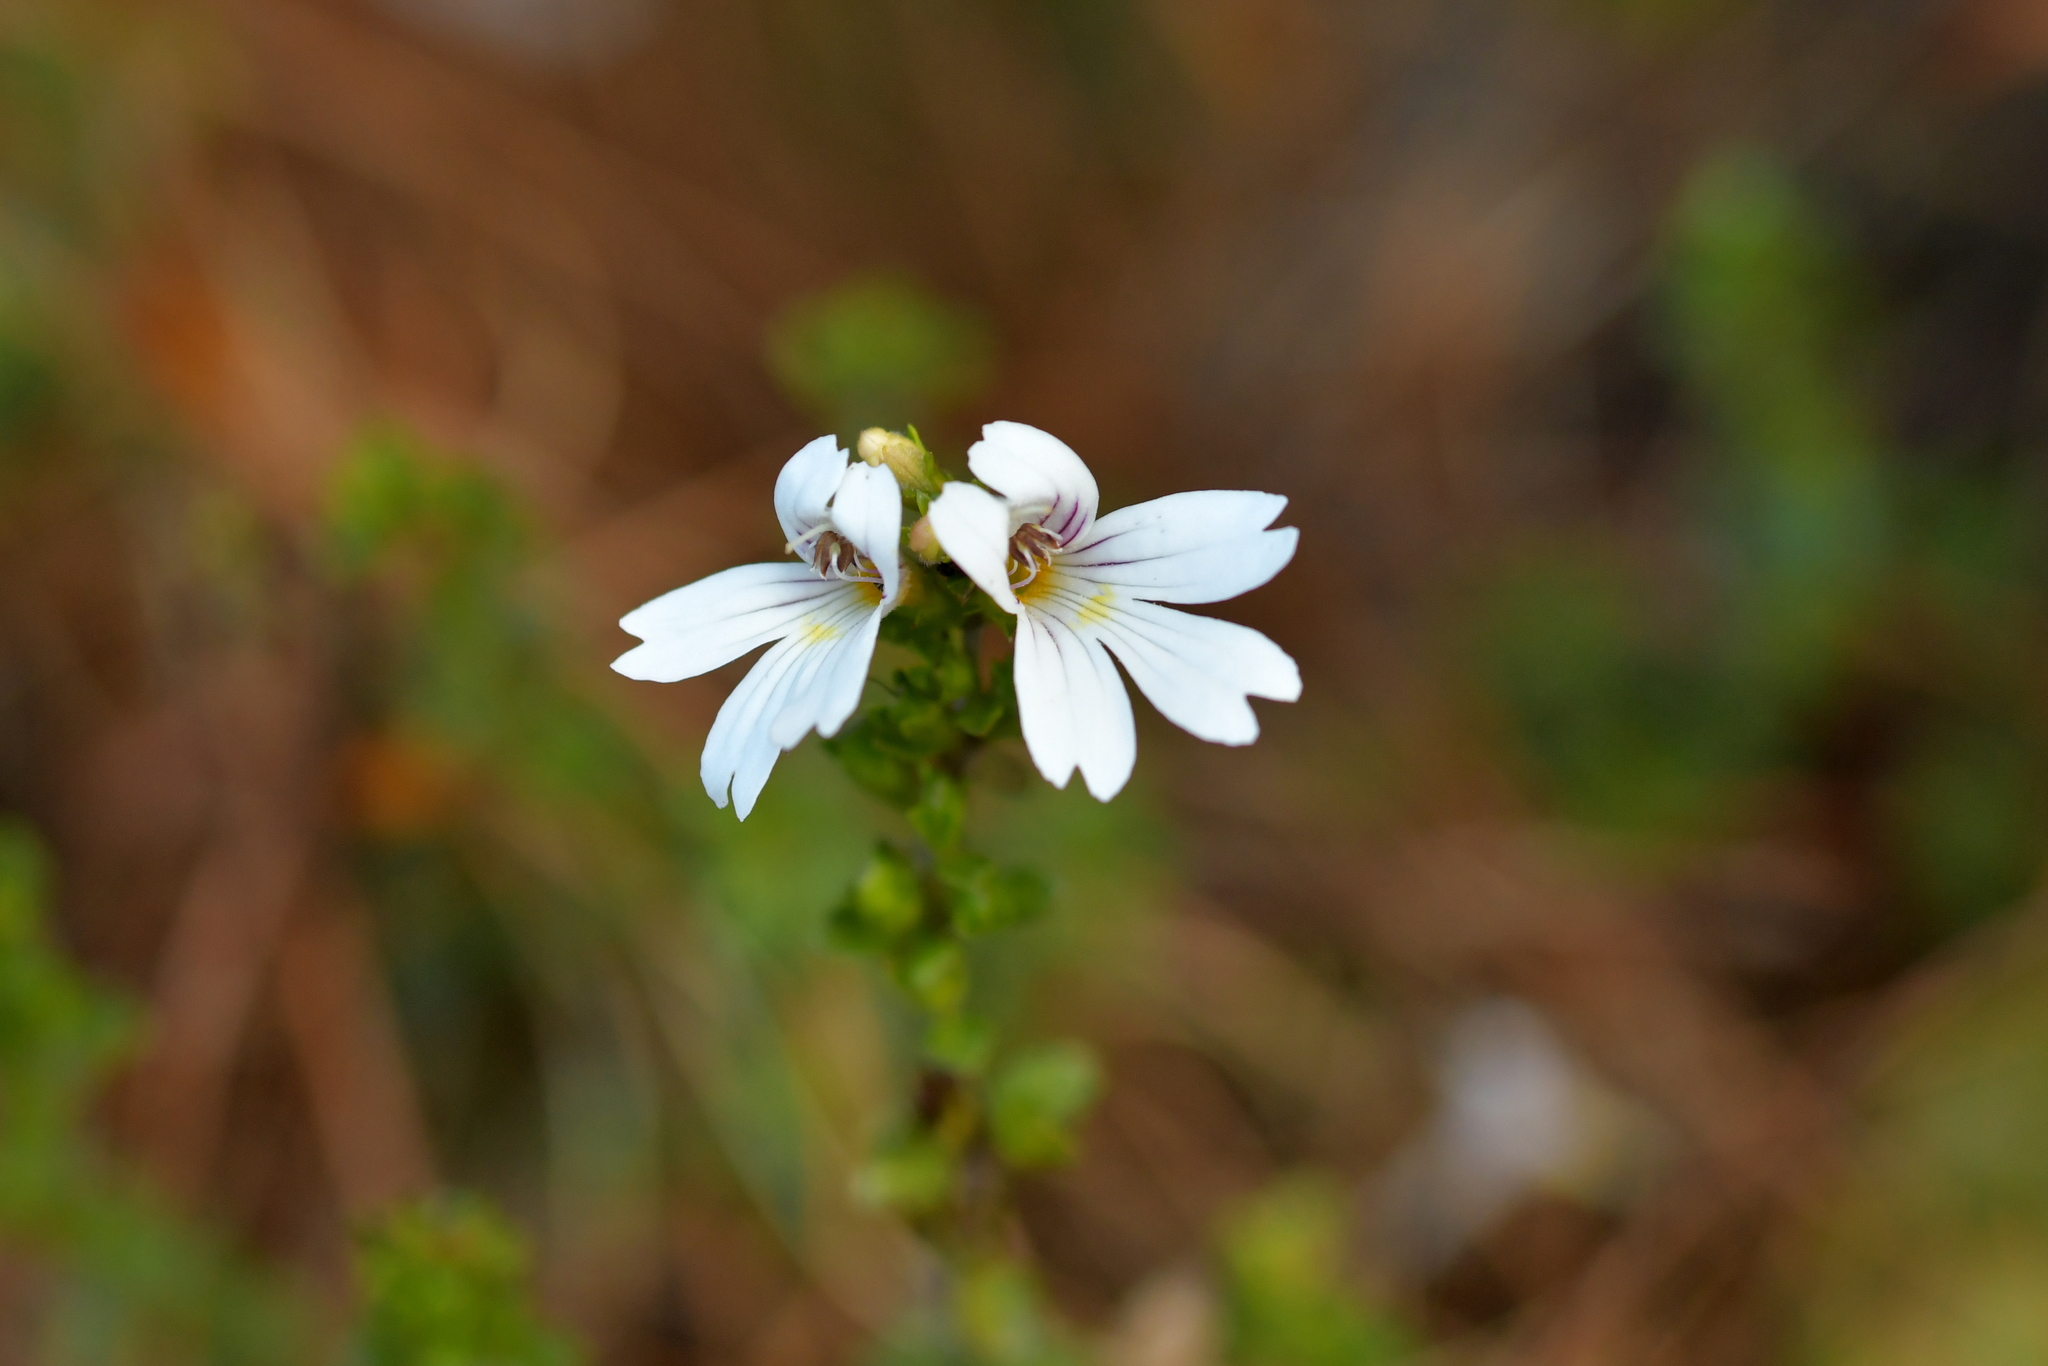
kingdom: Plantae
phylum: Tracheophyta
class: Magnoliopsida
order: Lamiales
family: Orobanchaceae
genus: Euphrasia
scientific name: Euphrasia cuneata
